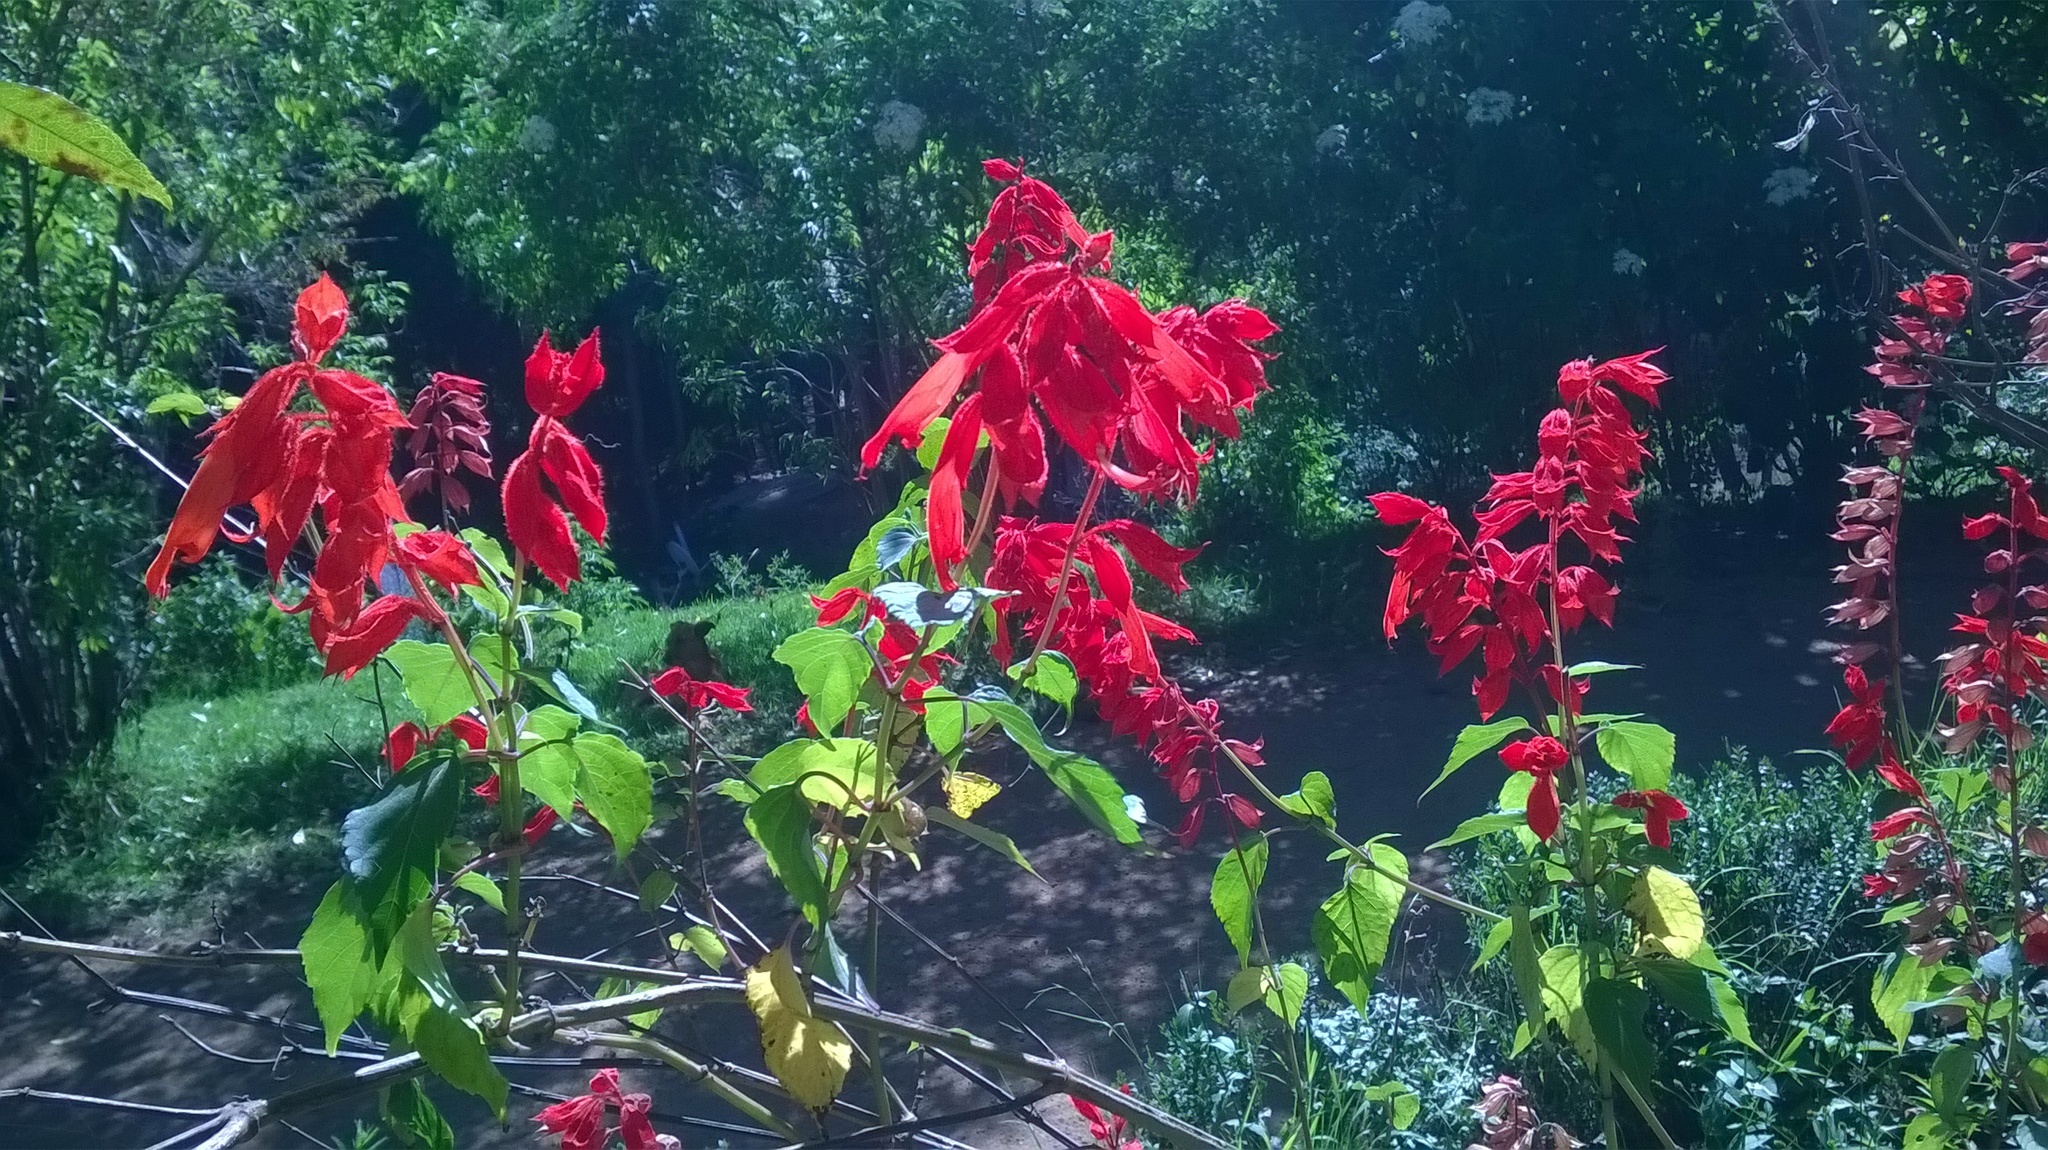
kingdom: Plantae
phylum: Tracheophyta
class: Magnoliopsida
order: Lamiales
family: Lamiaceae
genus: Salvia
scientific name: Salvia splendens
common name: Scarlet sage
